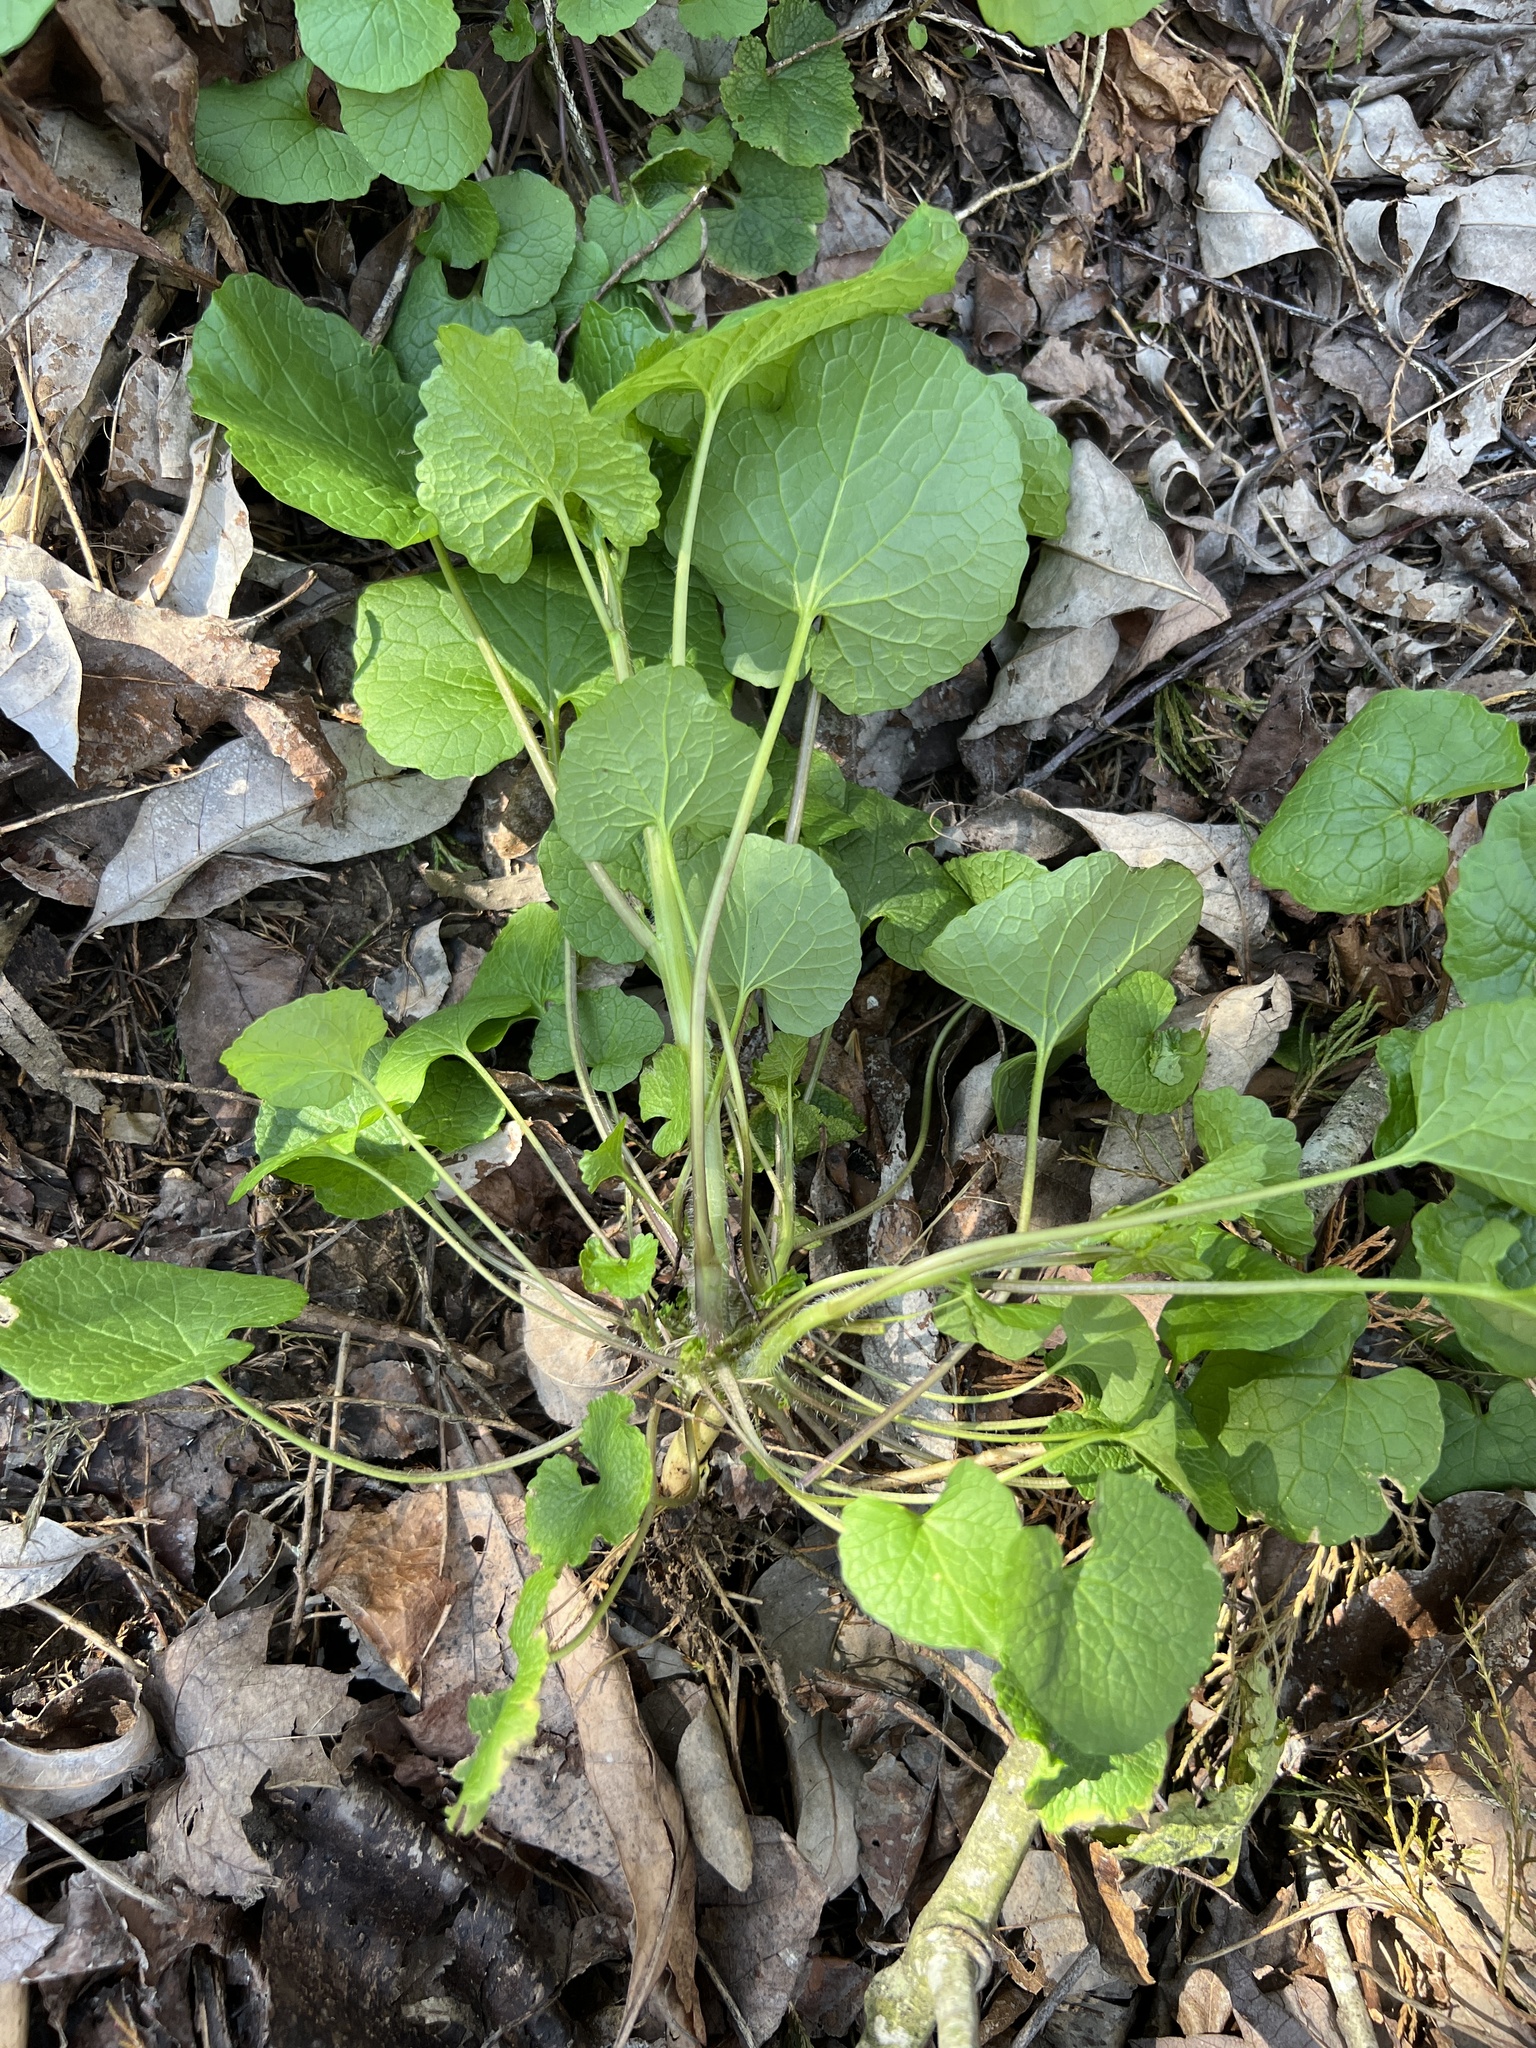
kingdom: Plantae
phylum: Tracheophyta
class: Magnoliopsida
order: Brassicales
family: Brassicaceae
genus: Alliaria
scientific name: Alliaria petiolata
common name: Garlic mustard
